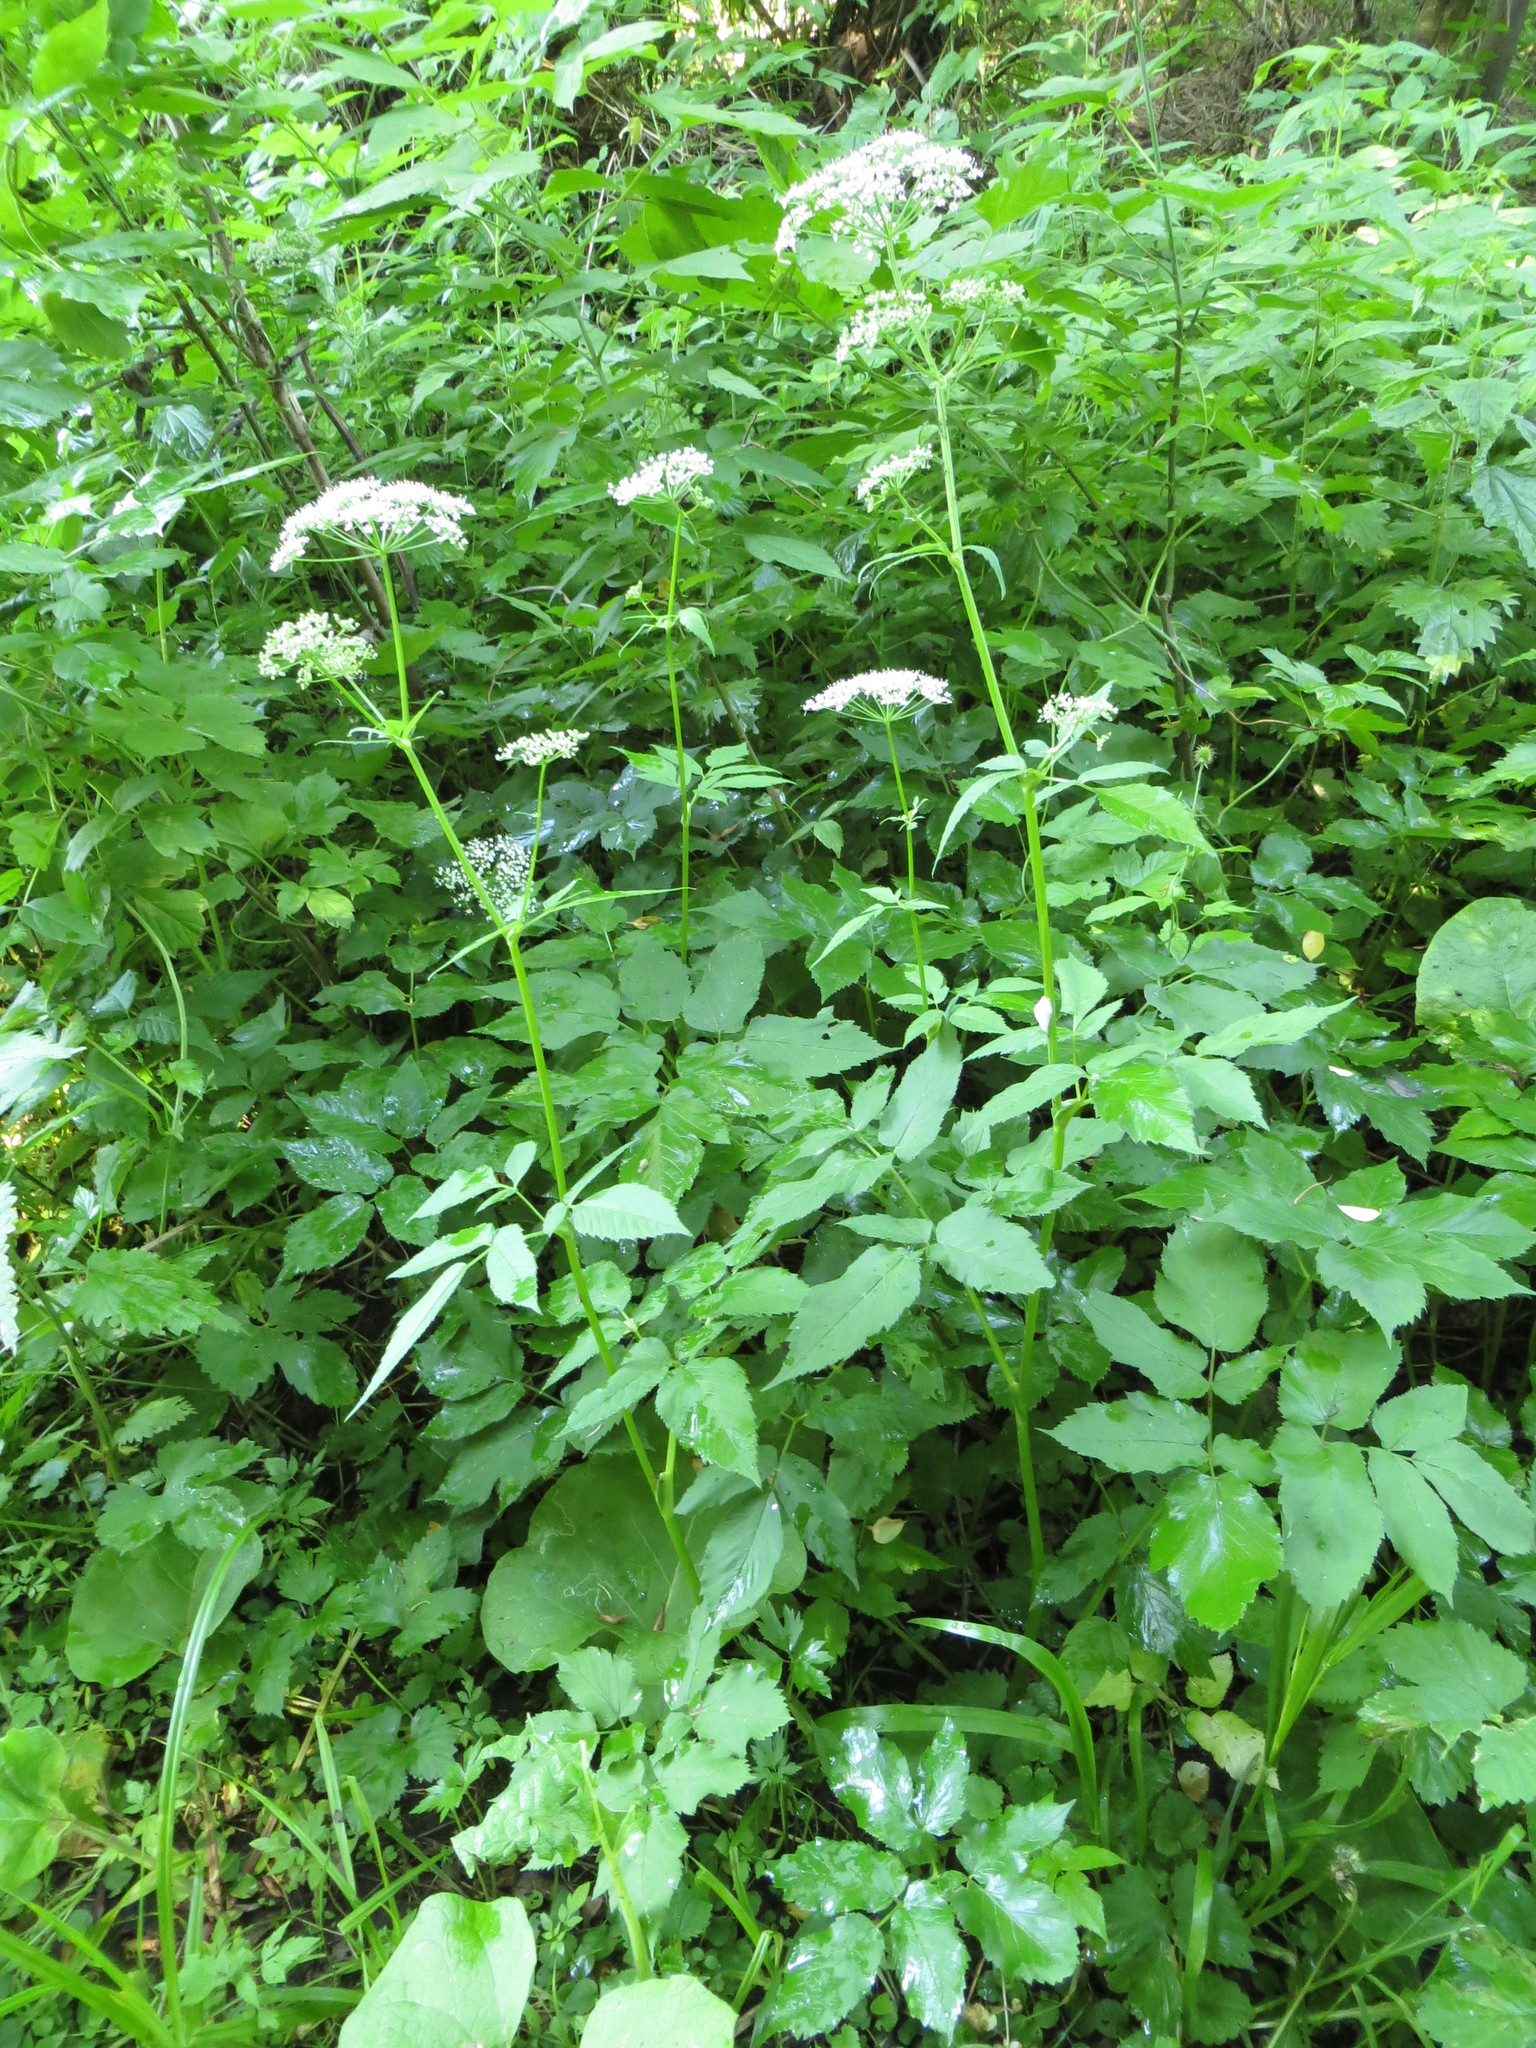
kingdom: Plantae
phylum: Tracheophyta
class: Magnoliopsida
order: Apiales
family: Apiaceae
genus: Aegopodium
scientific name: Aegopodium podagraria
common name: Ground-elder
